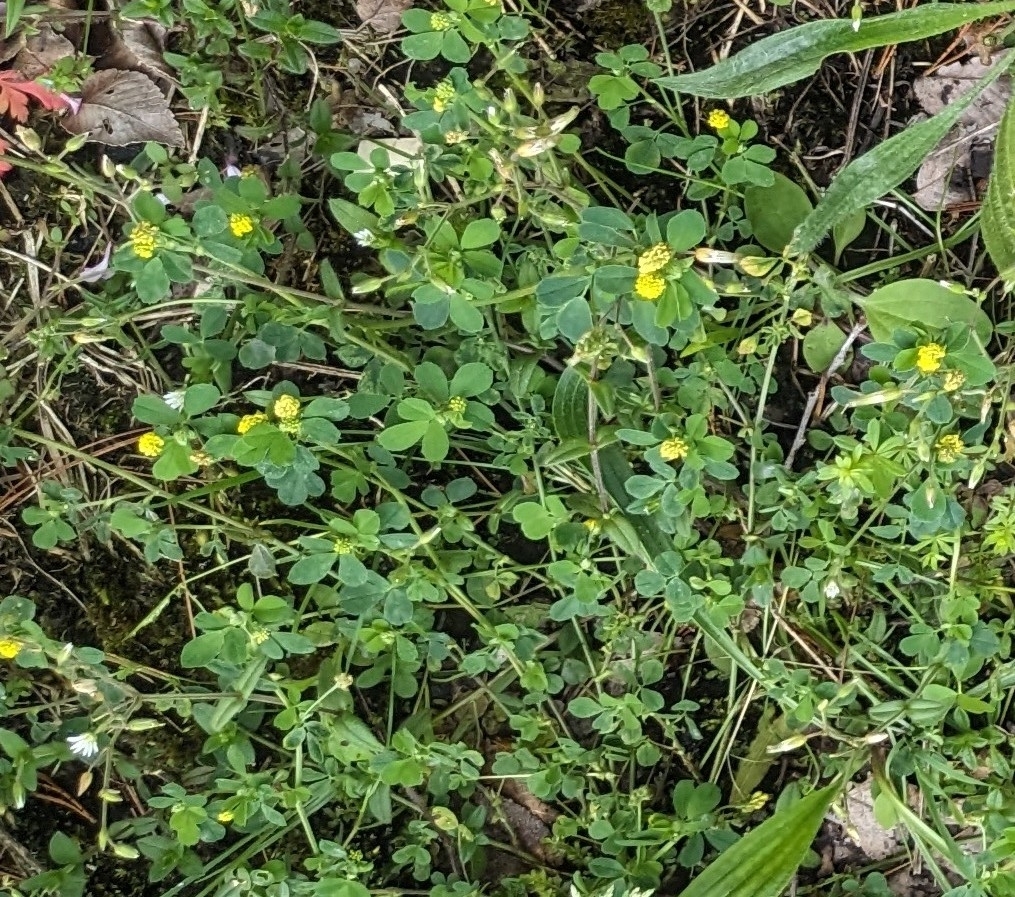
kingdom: Plantae
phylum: Tracheophyta
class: Magnoliopsida
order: Fabales
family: Fabaceae
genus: Medicago
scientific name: Medicago lupulina
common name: Black medick
